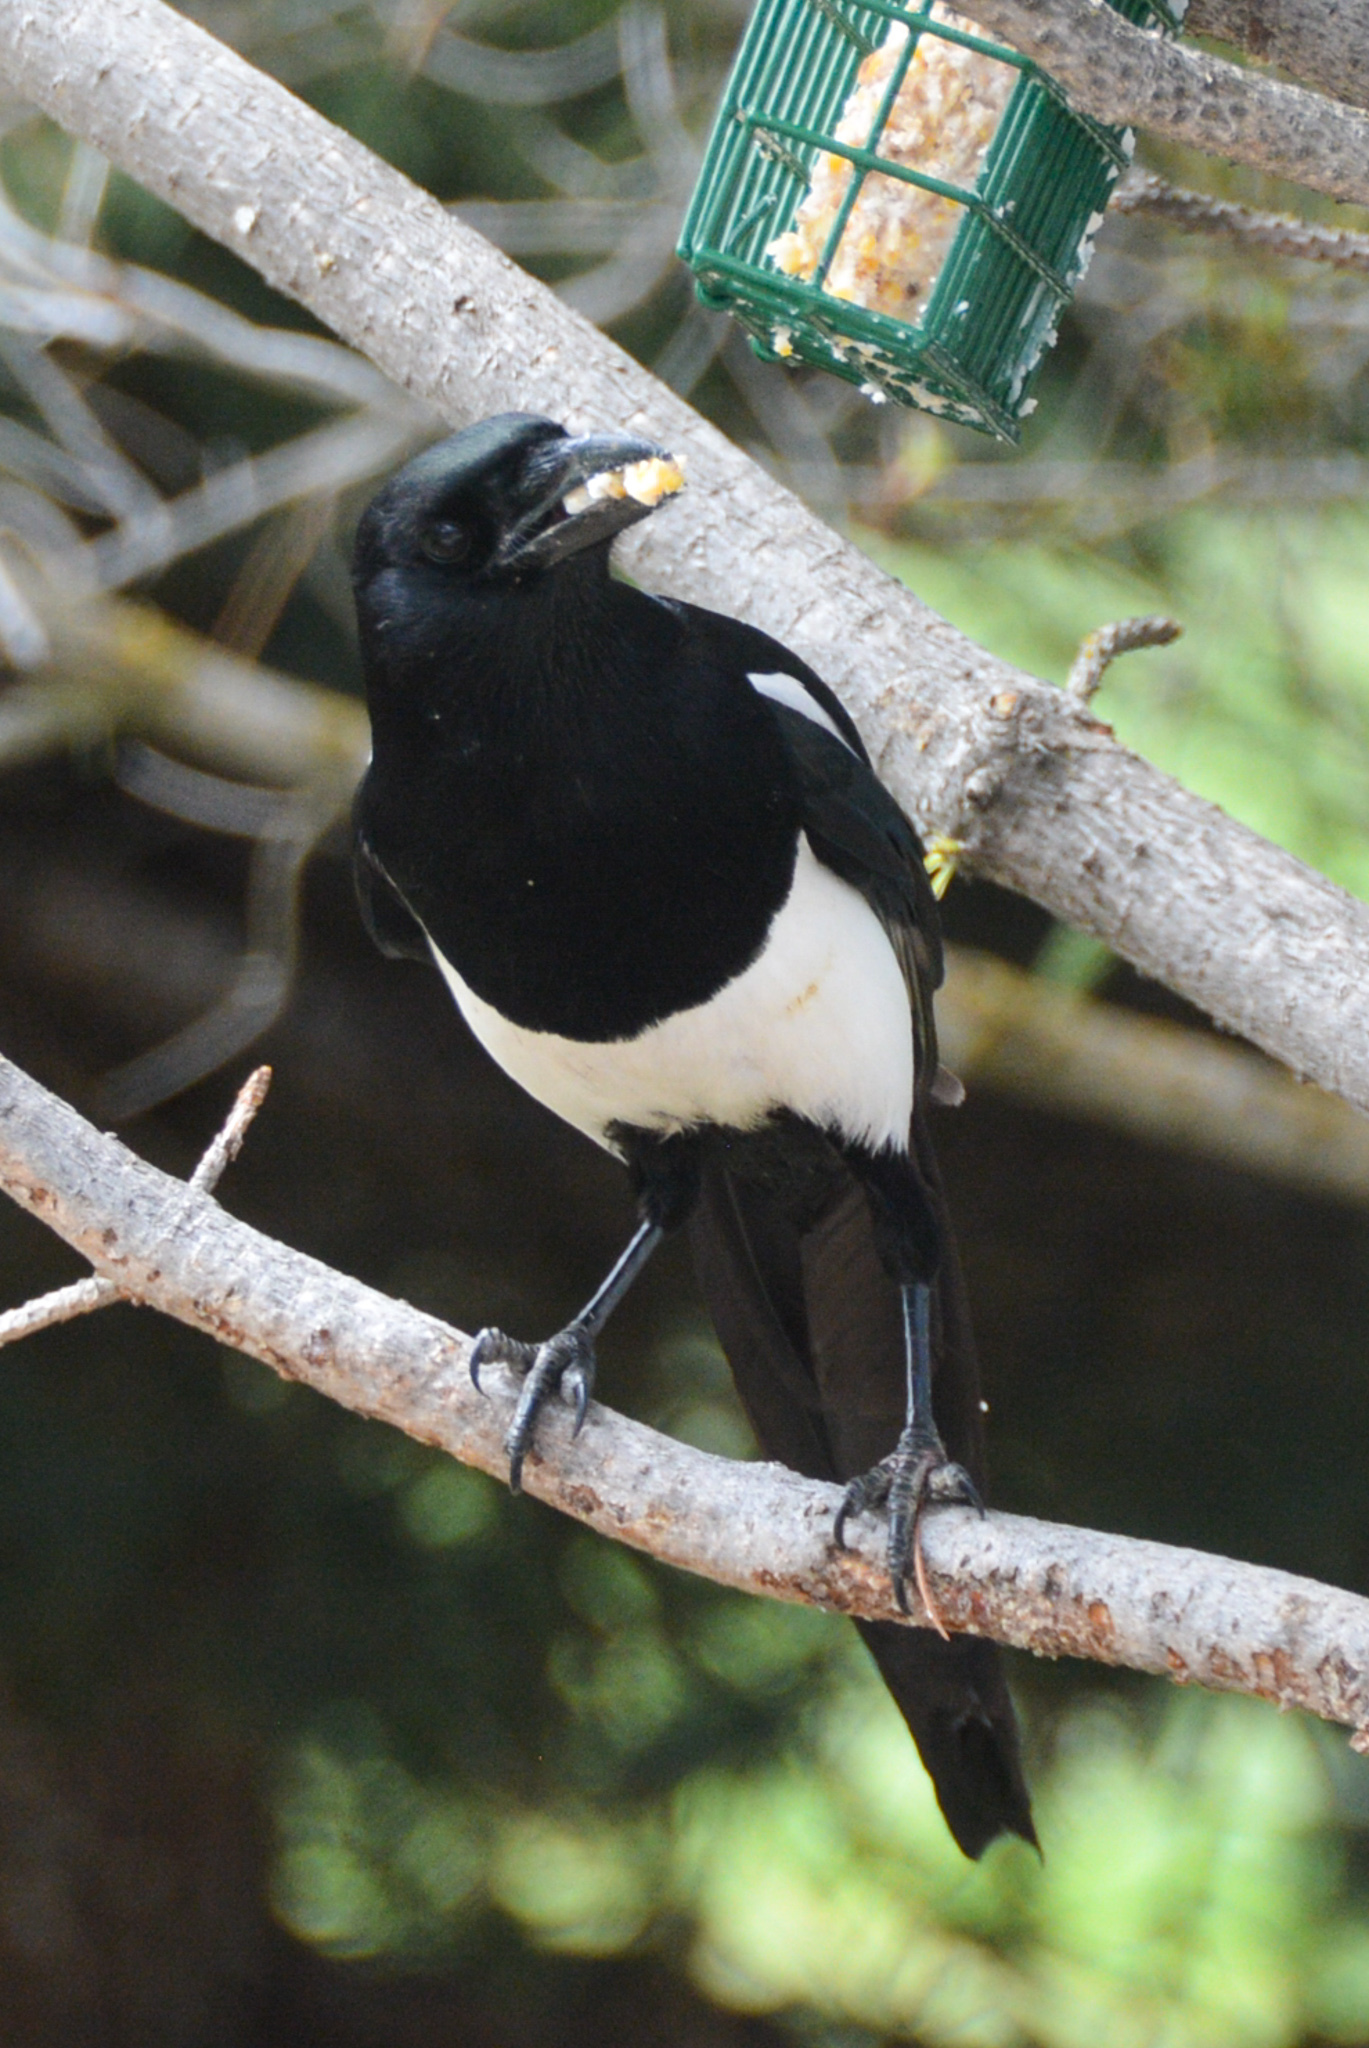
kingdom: Animalia
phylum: Chordata
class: Aves
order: Passeriformes
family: Corvidae
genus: Pica
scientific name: Pica hudsonia
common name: Black-billed magpie
